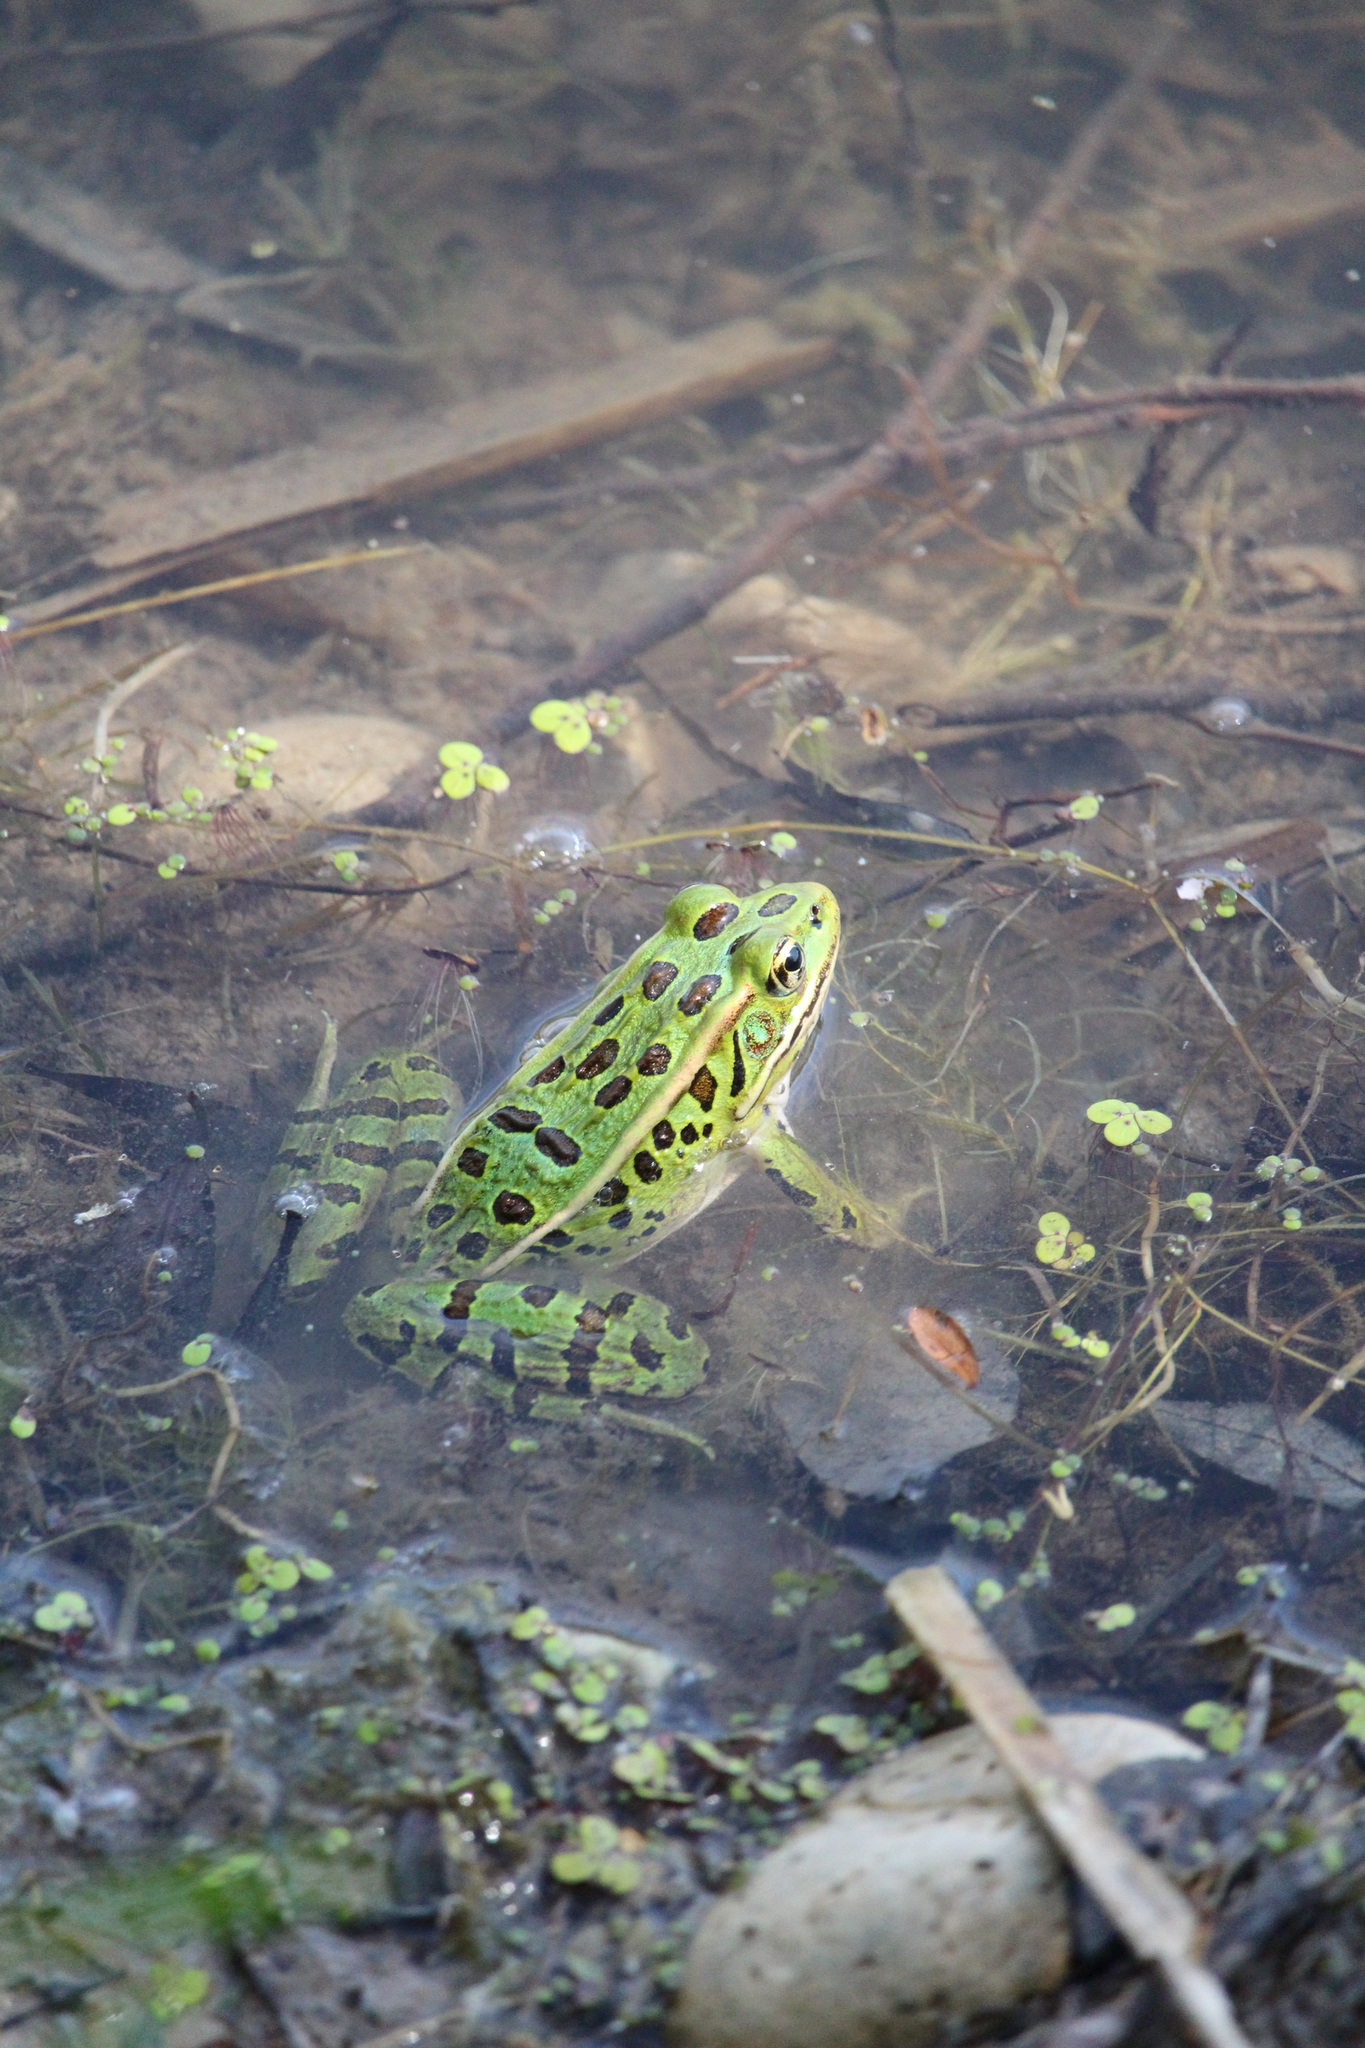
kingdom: Animalia
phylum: Chordata
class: Amphibia
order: Anura
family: Ranidae
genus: Lithobates
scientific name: Lithobates pipiens
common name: Northern leopard frog
